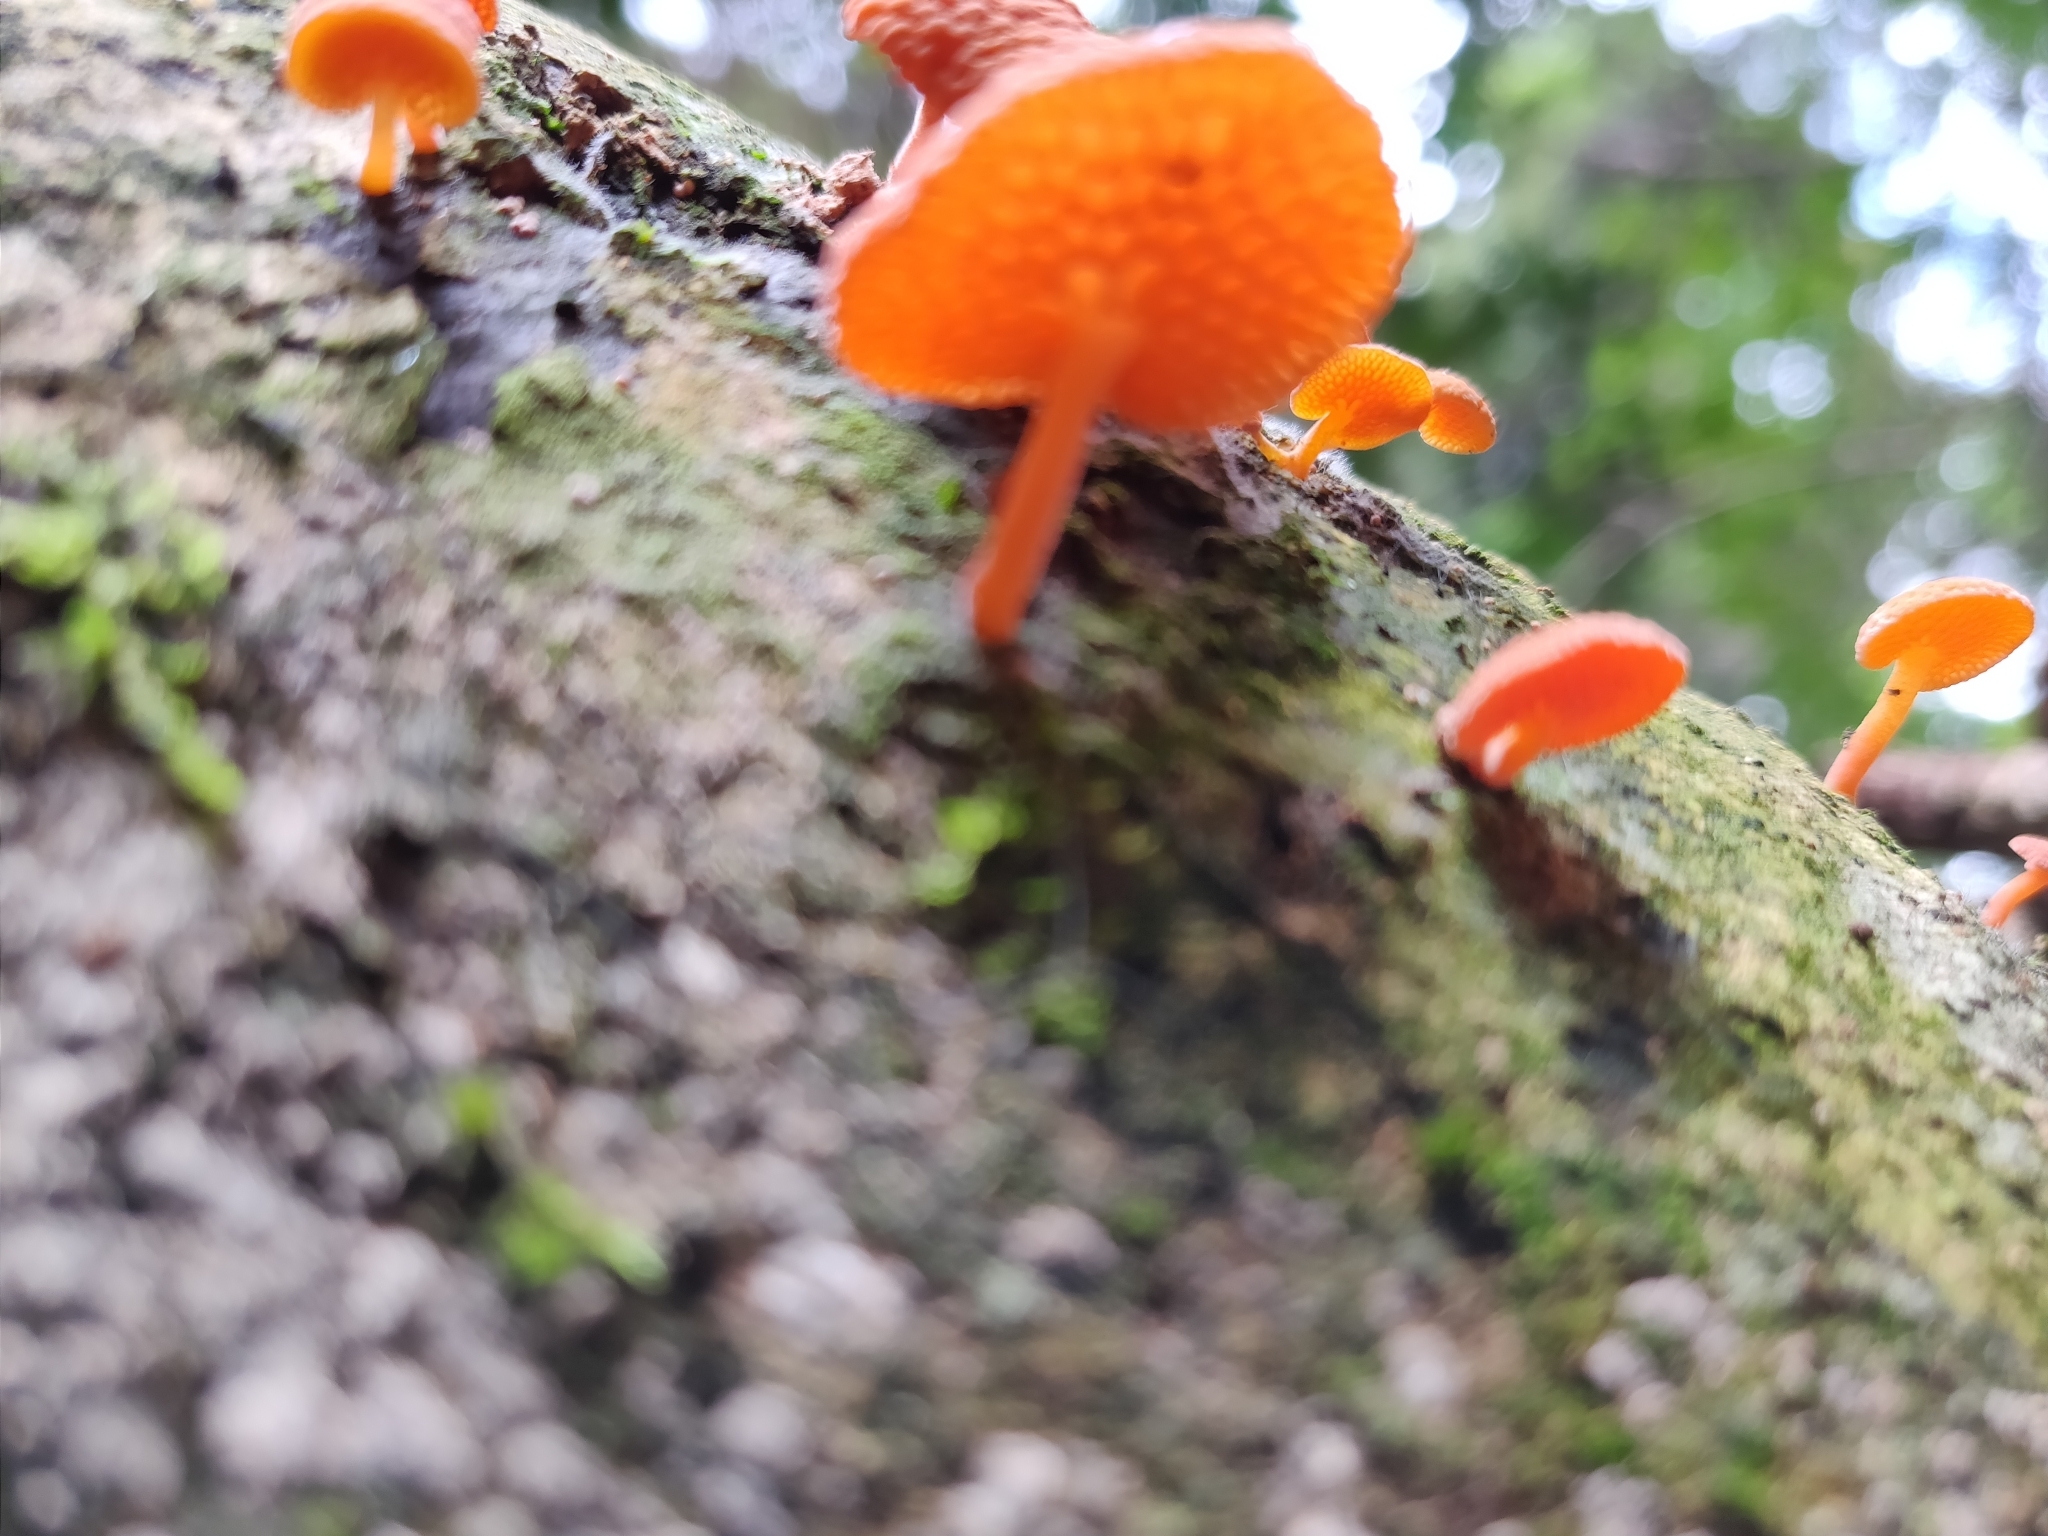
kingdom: Fungi
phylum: Basidiomycota
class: Agaricomycetes
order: Agaricales
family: Mycenaceae
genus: Favolaschia
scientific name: Favolaschia claudopus
